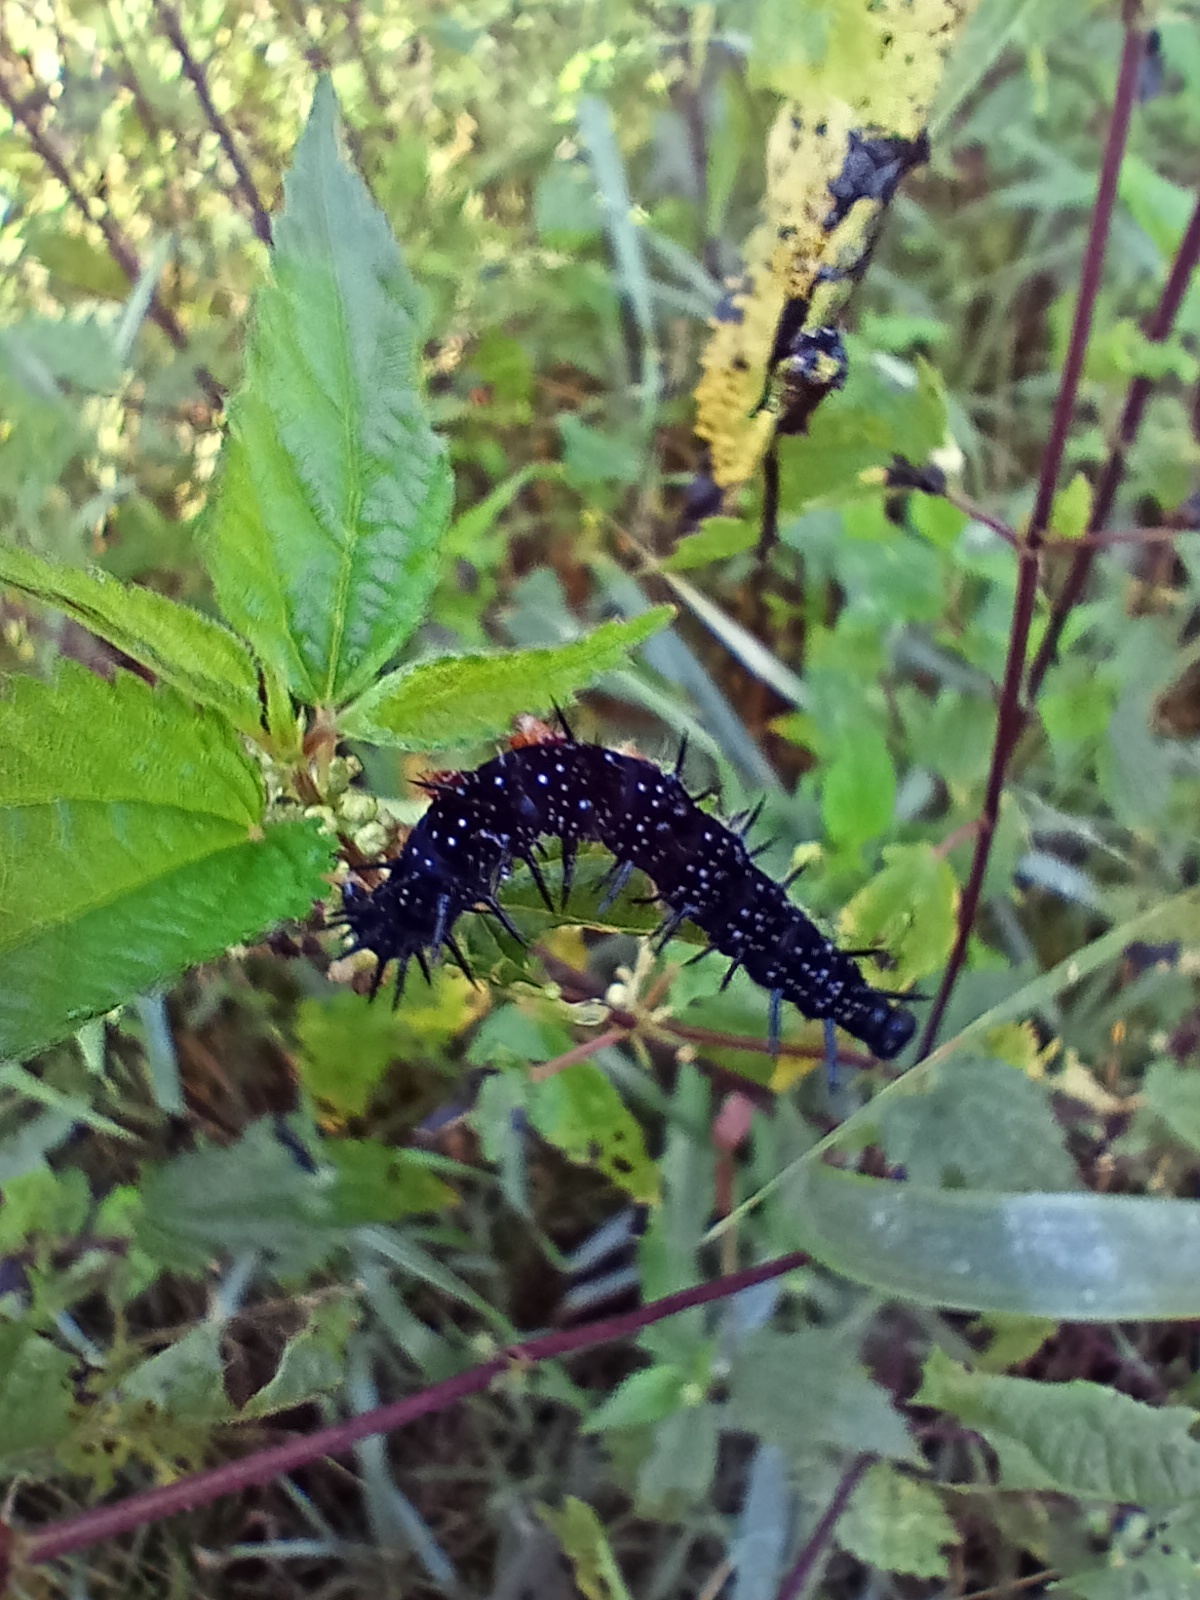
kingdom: Animalia
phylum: Arthropoda
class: Insecta
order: Lepidoptera
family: Nymphalidae
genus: Aglais
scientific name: Aglais io
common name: Peacock
